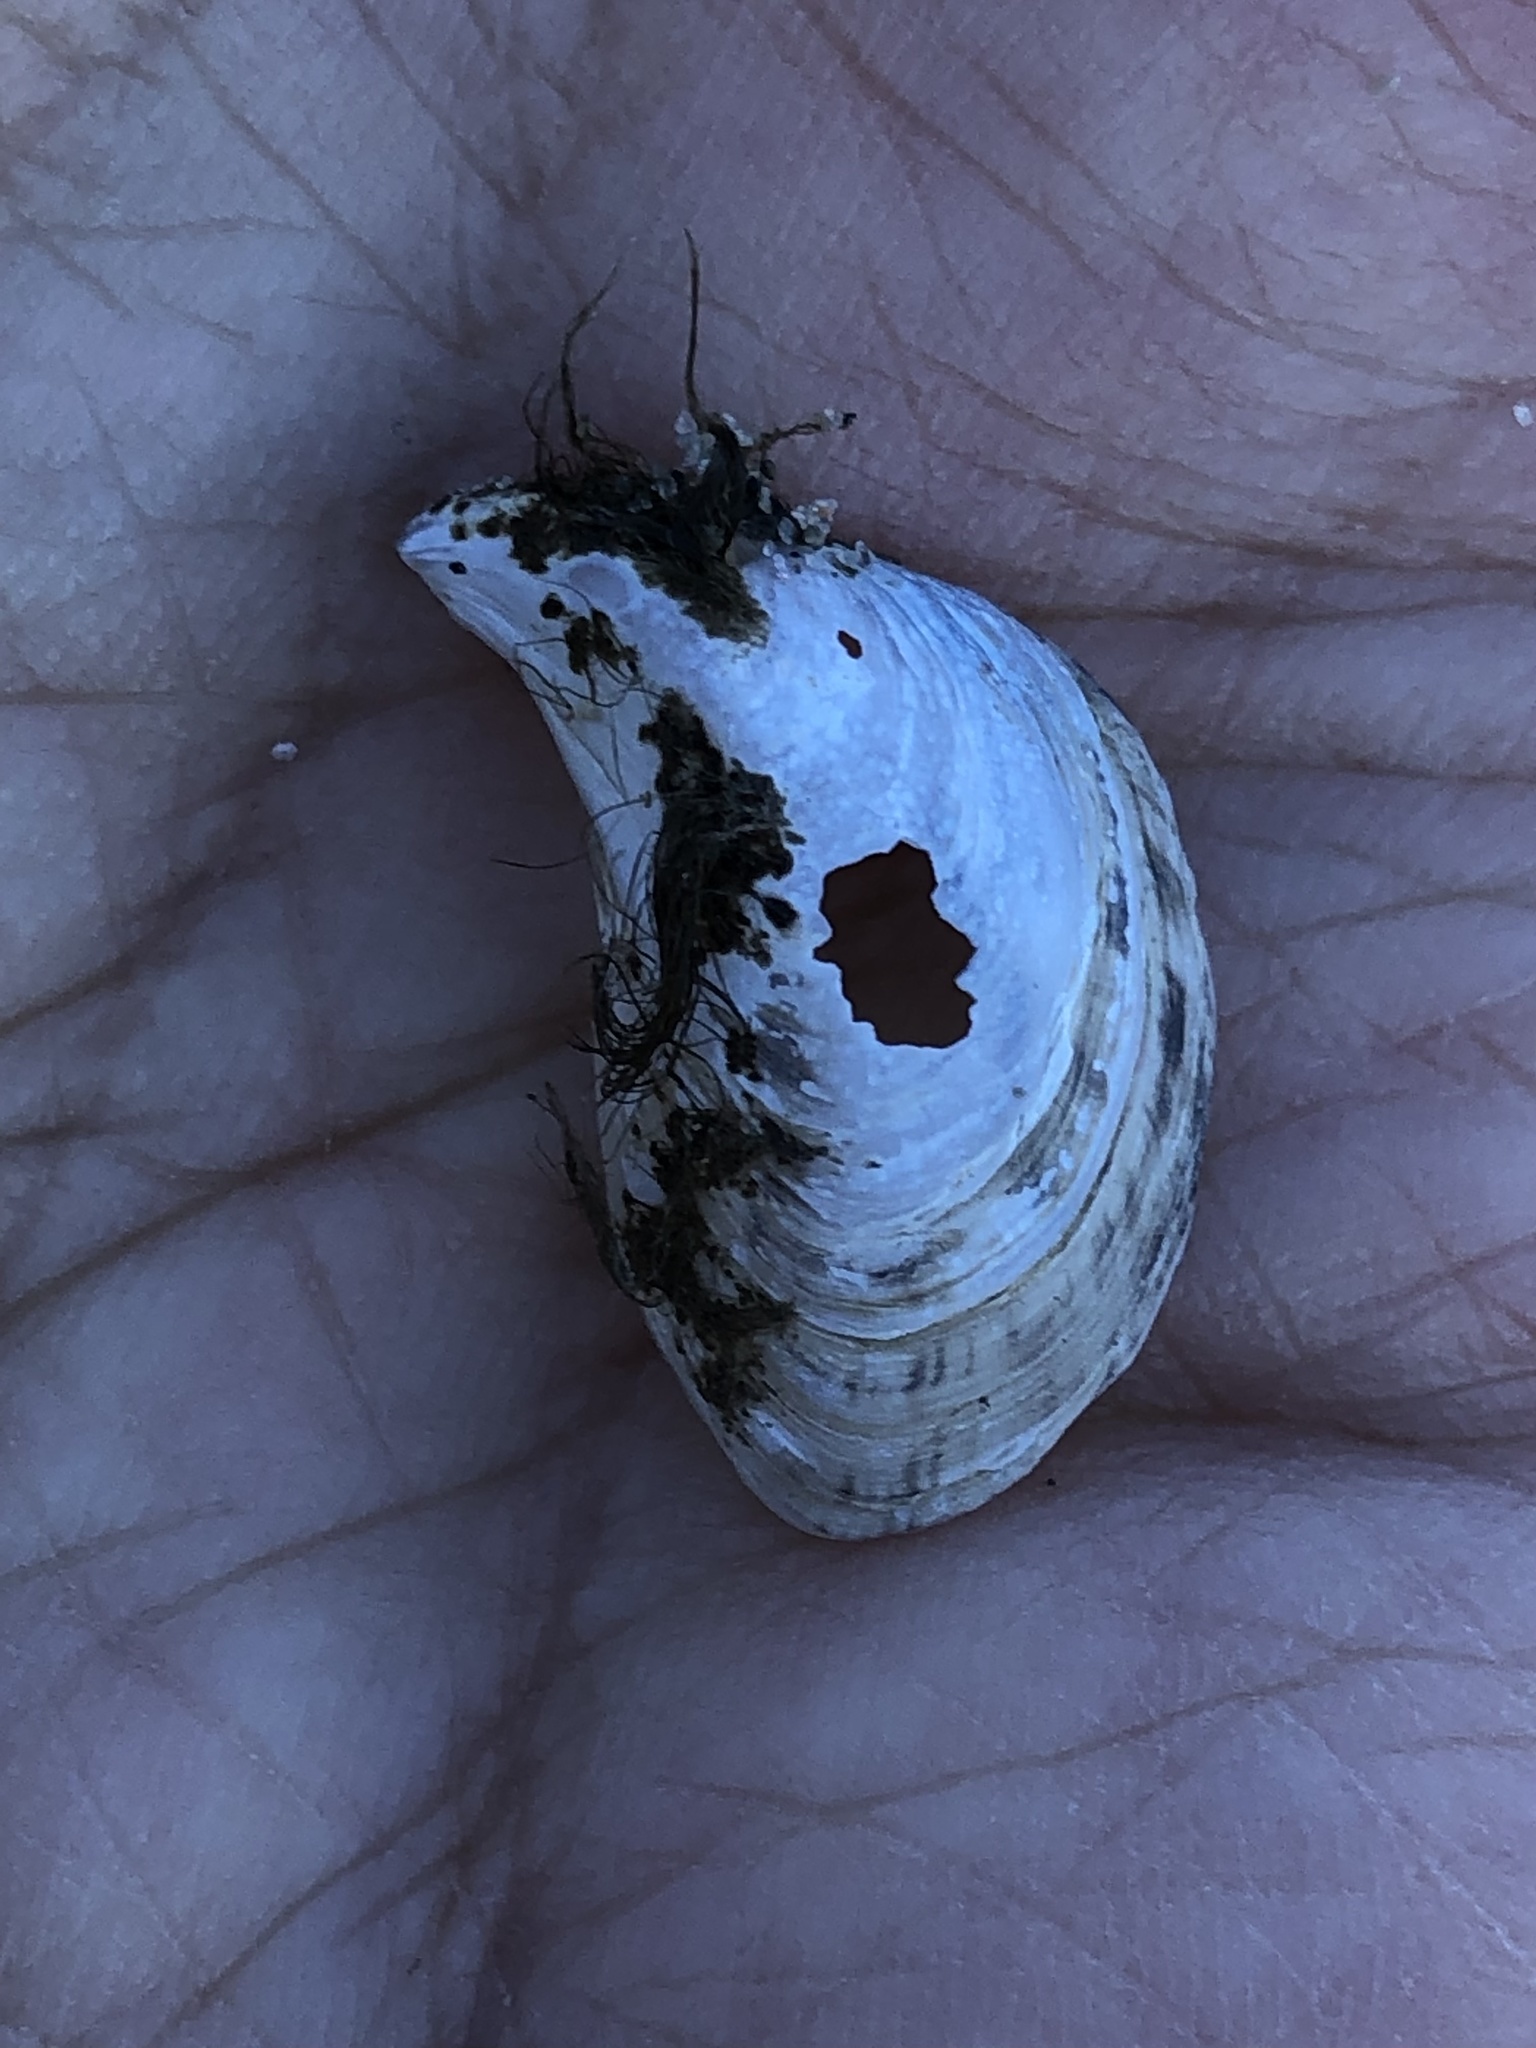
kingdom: Animalia
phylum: Mollusca
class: Bivalvia
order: Myida
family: Dreissenidae
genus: Dreissena
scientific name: Dreissena bugensis
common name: Quagga mussel
